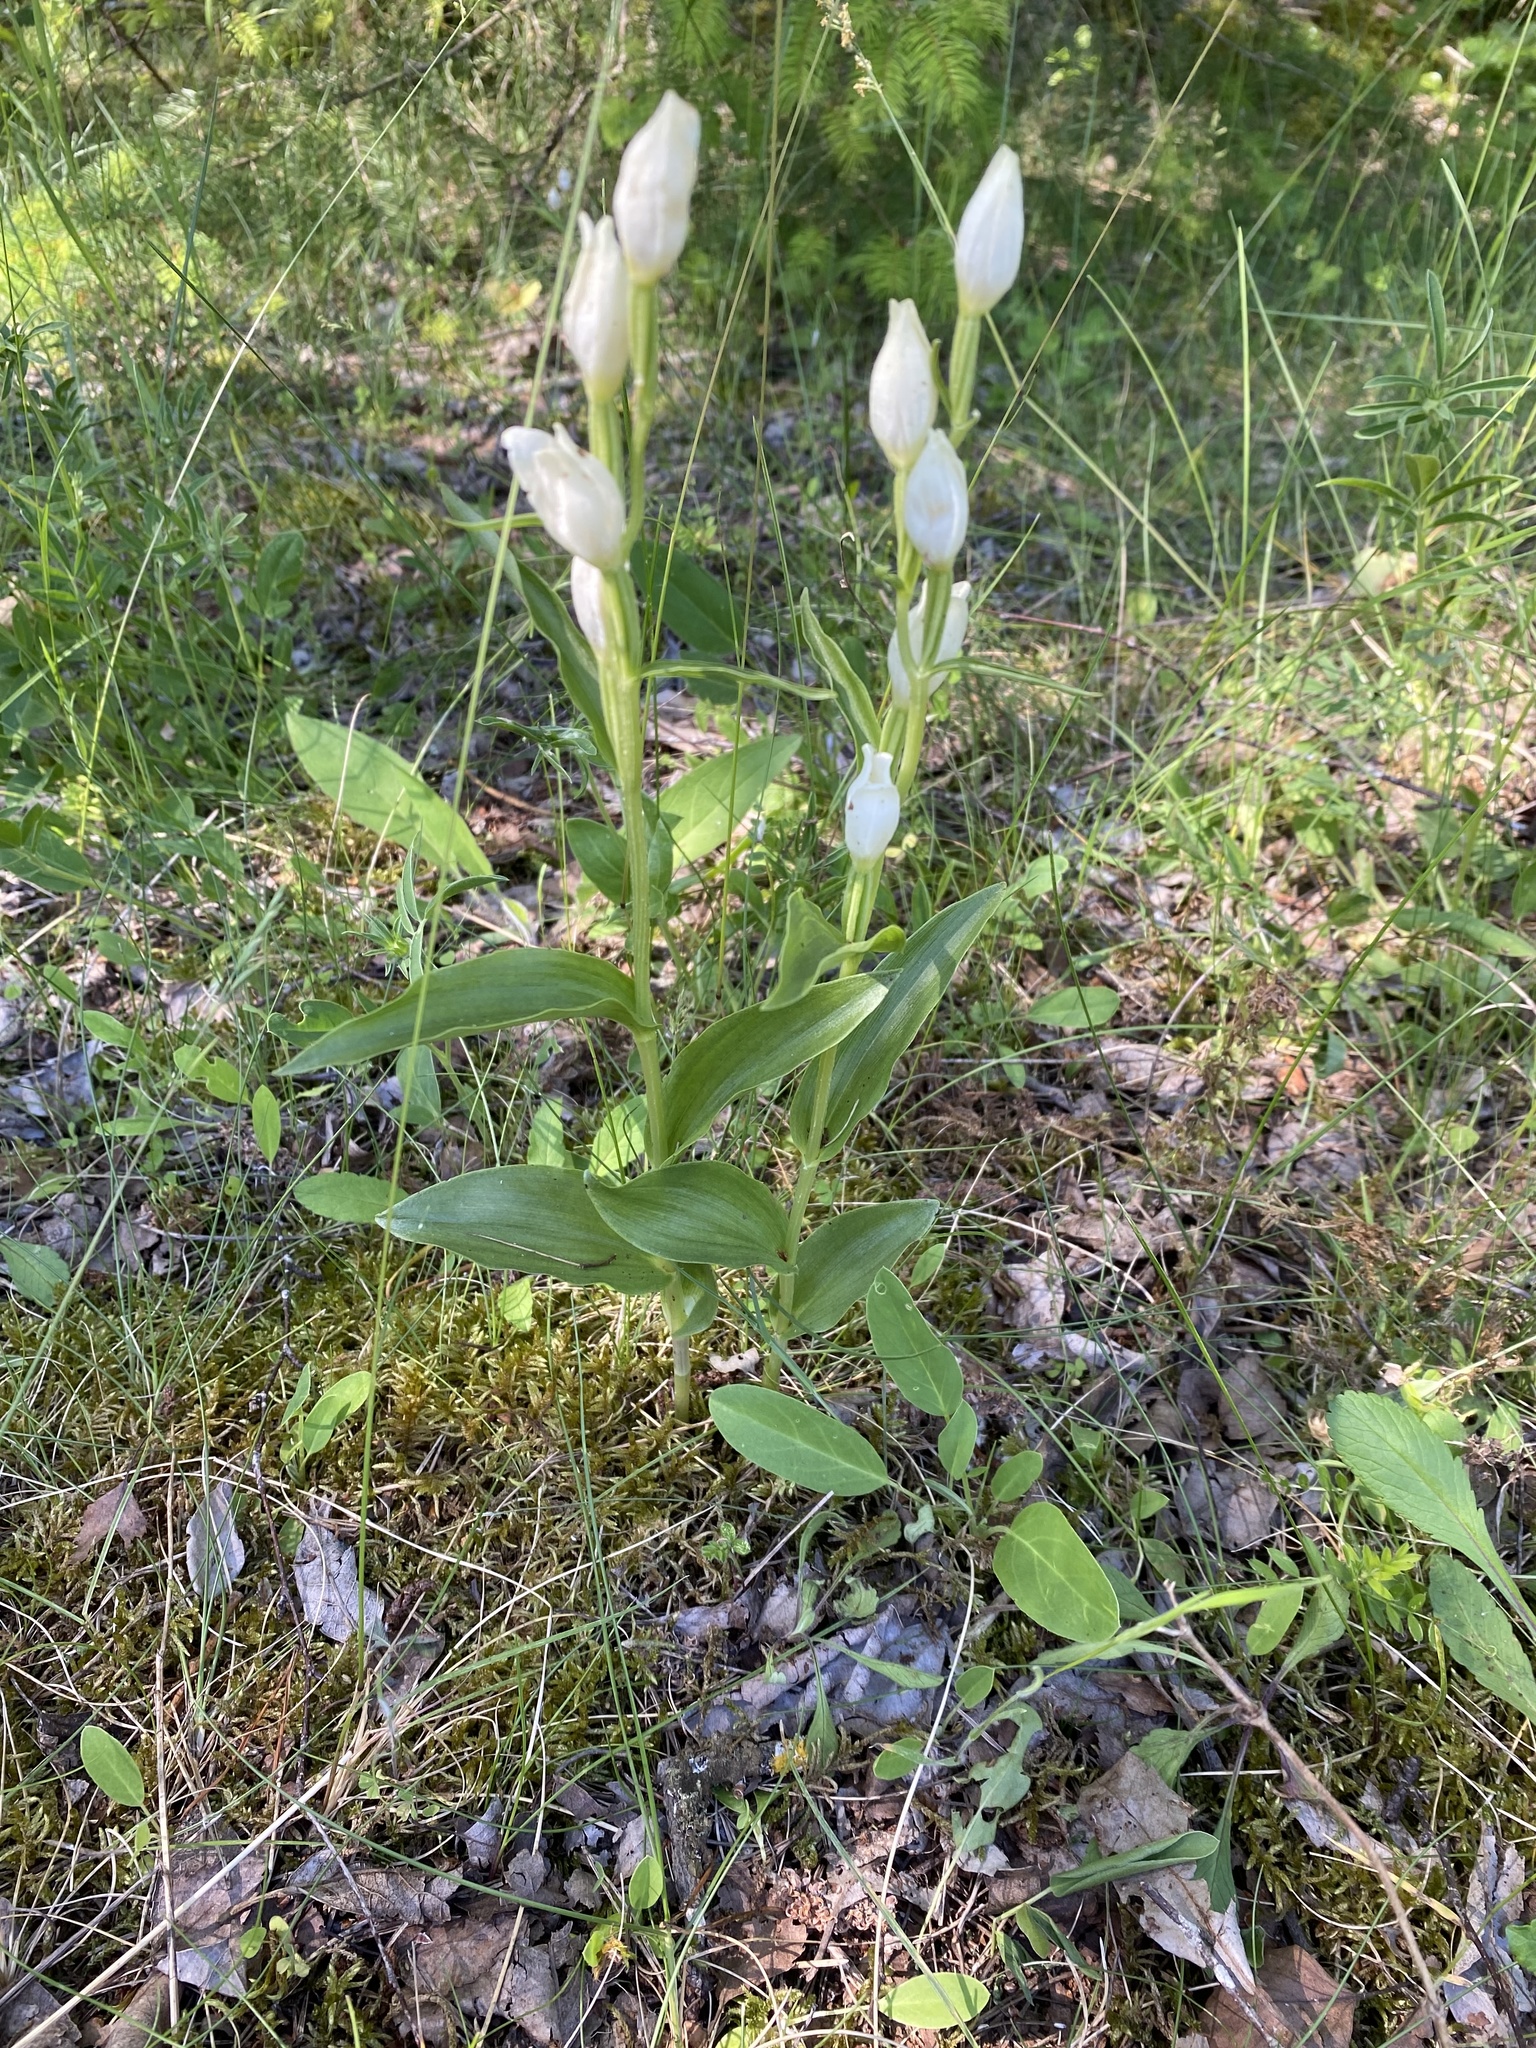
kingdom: Plantae
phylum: Tracheophyta
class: Liliopsida
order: Asparagales
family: Orchidaceae
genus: Cephalanthera
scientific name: Cephalanthera damasonium
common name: White helleborine
